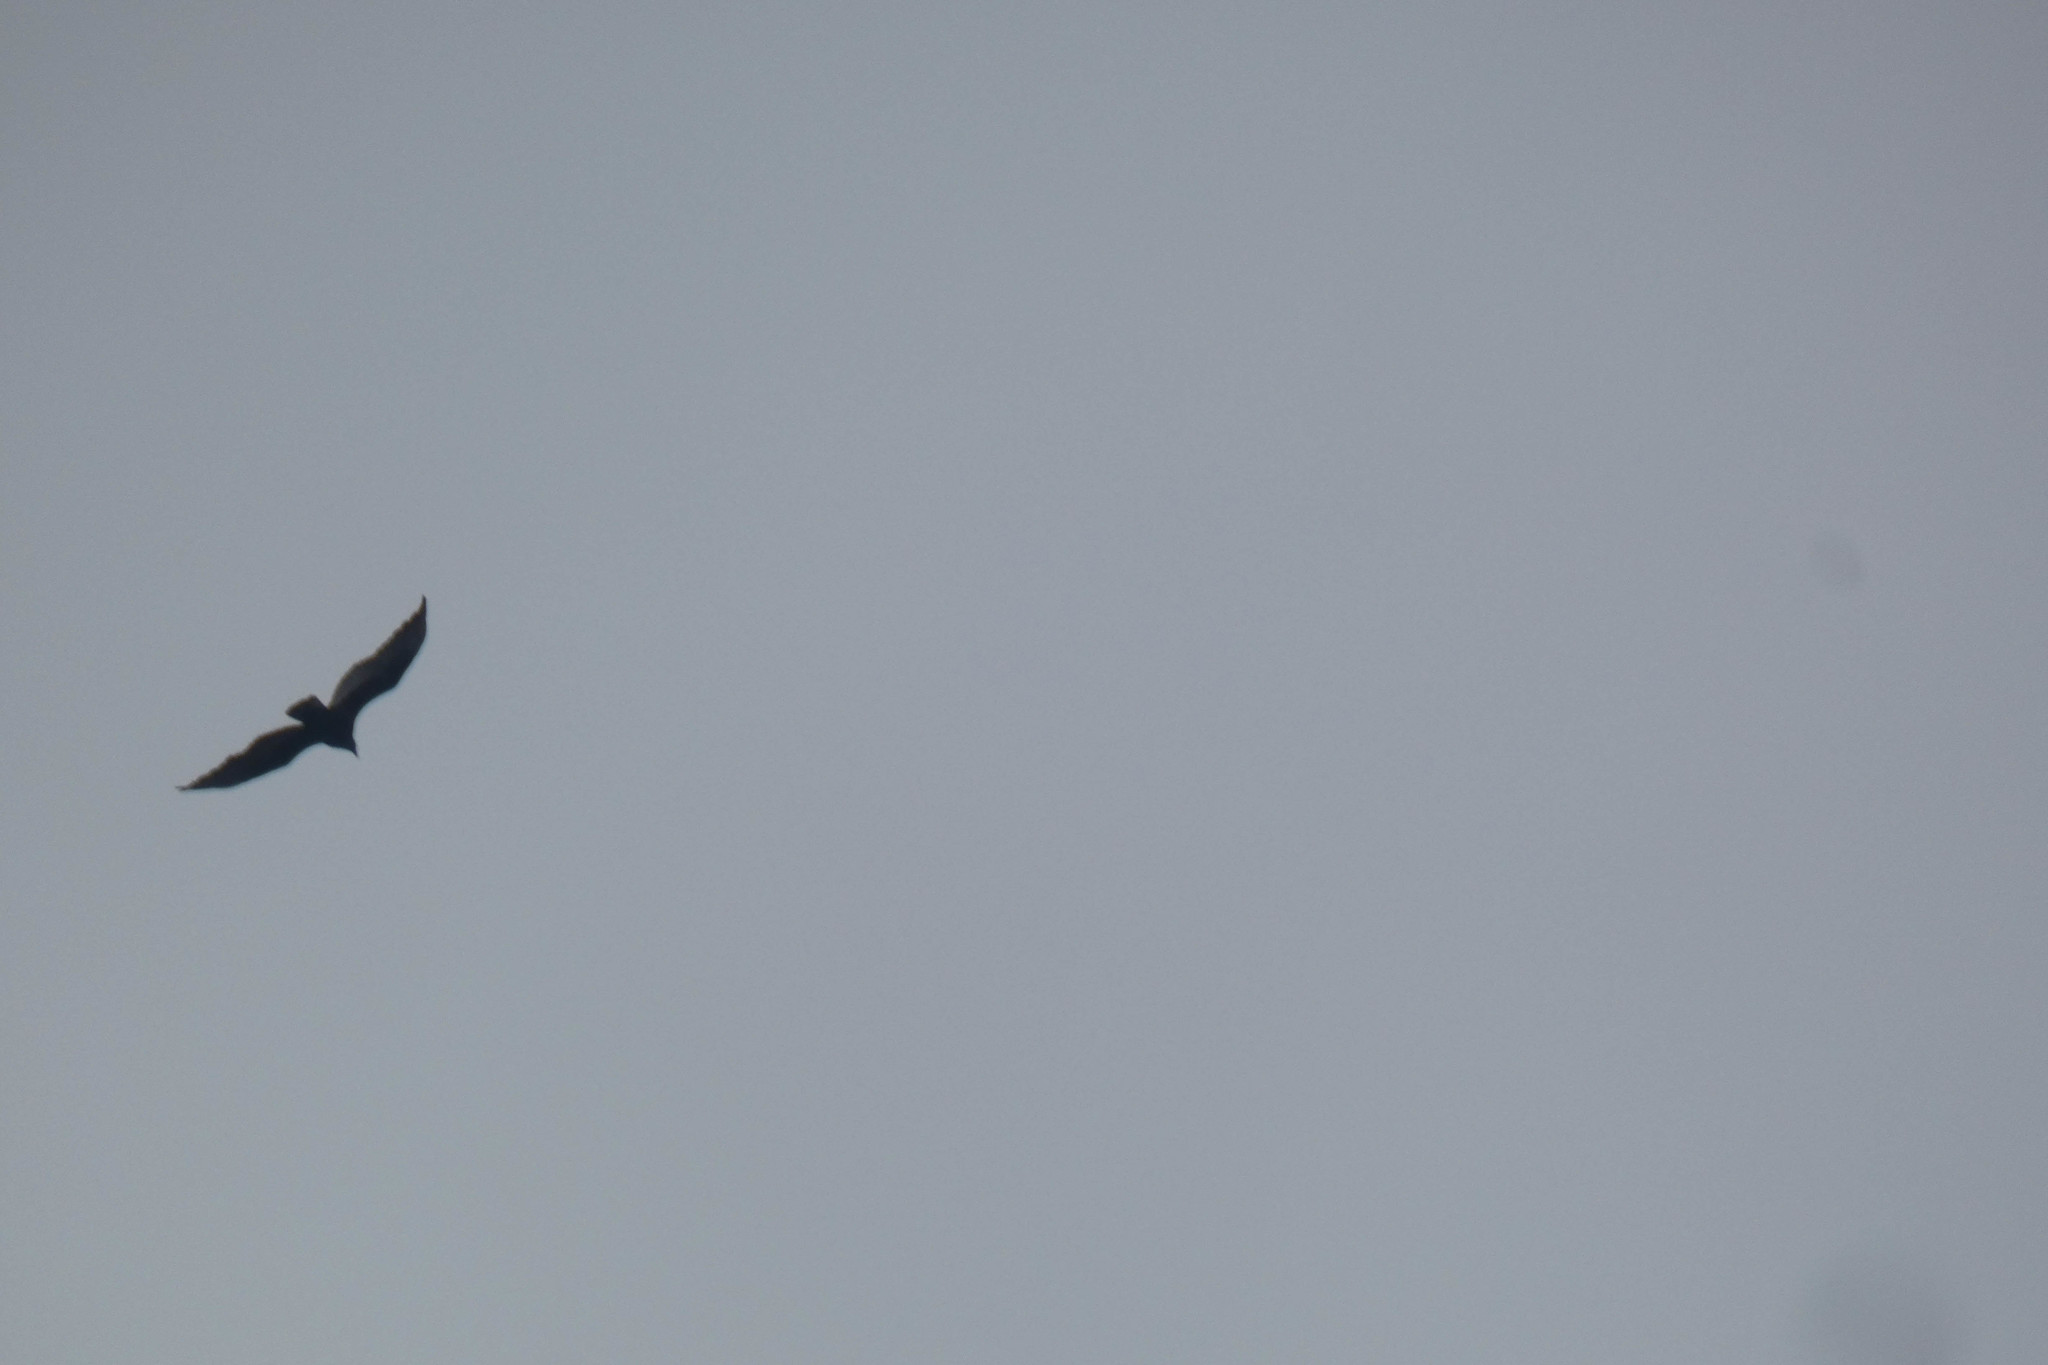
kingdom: Animalia
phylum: Chordata
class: Aves
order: Accipitriformes
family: Cathartidae
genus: Cathartes
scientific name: Cathartes aura
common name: Turkey vulture
